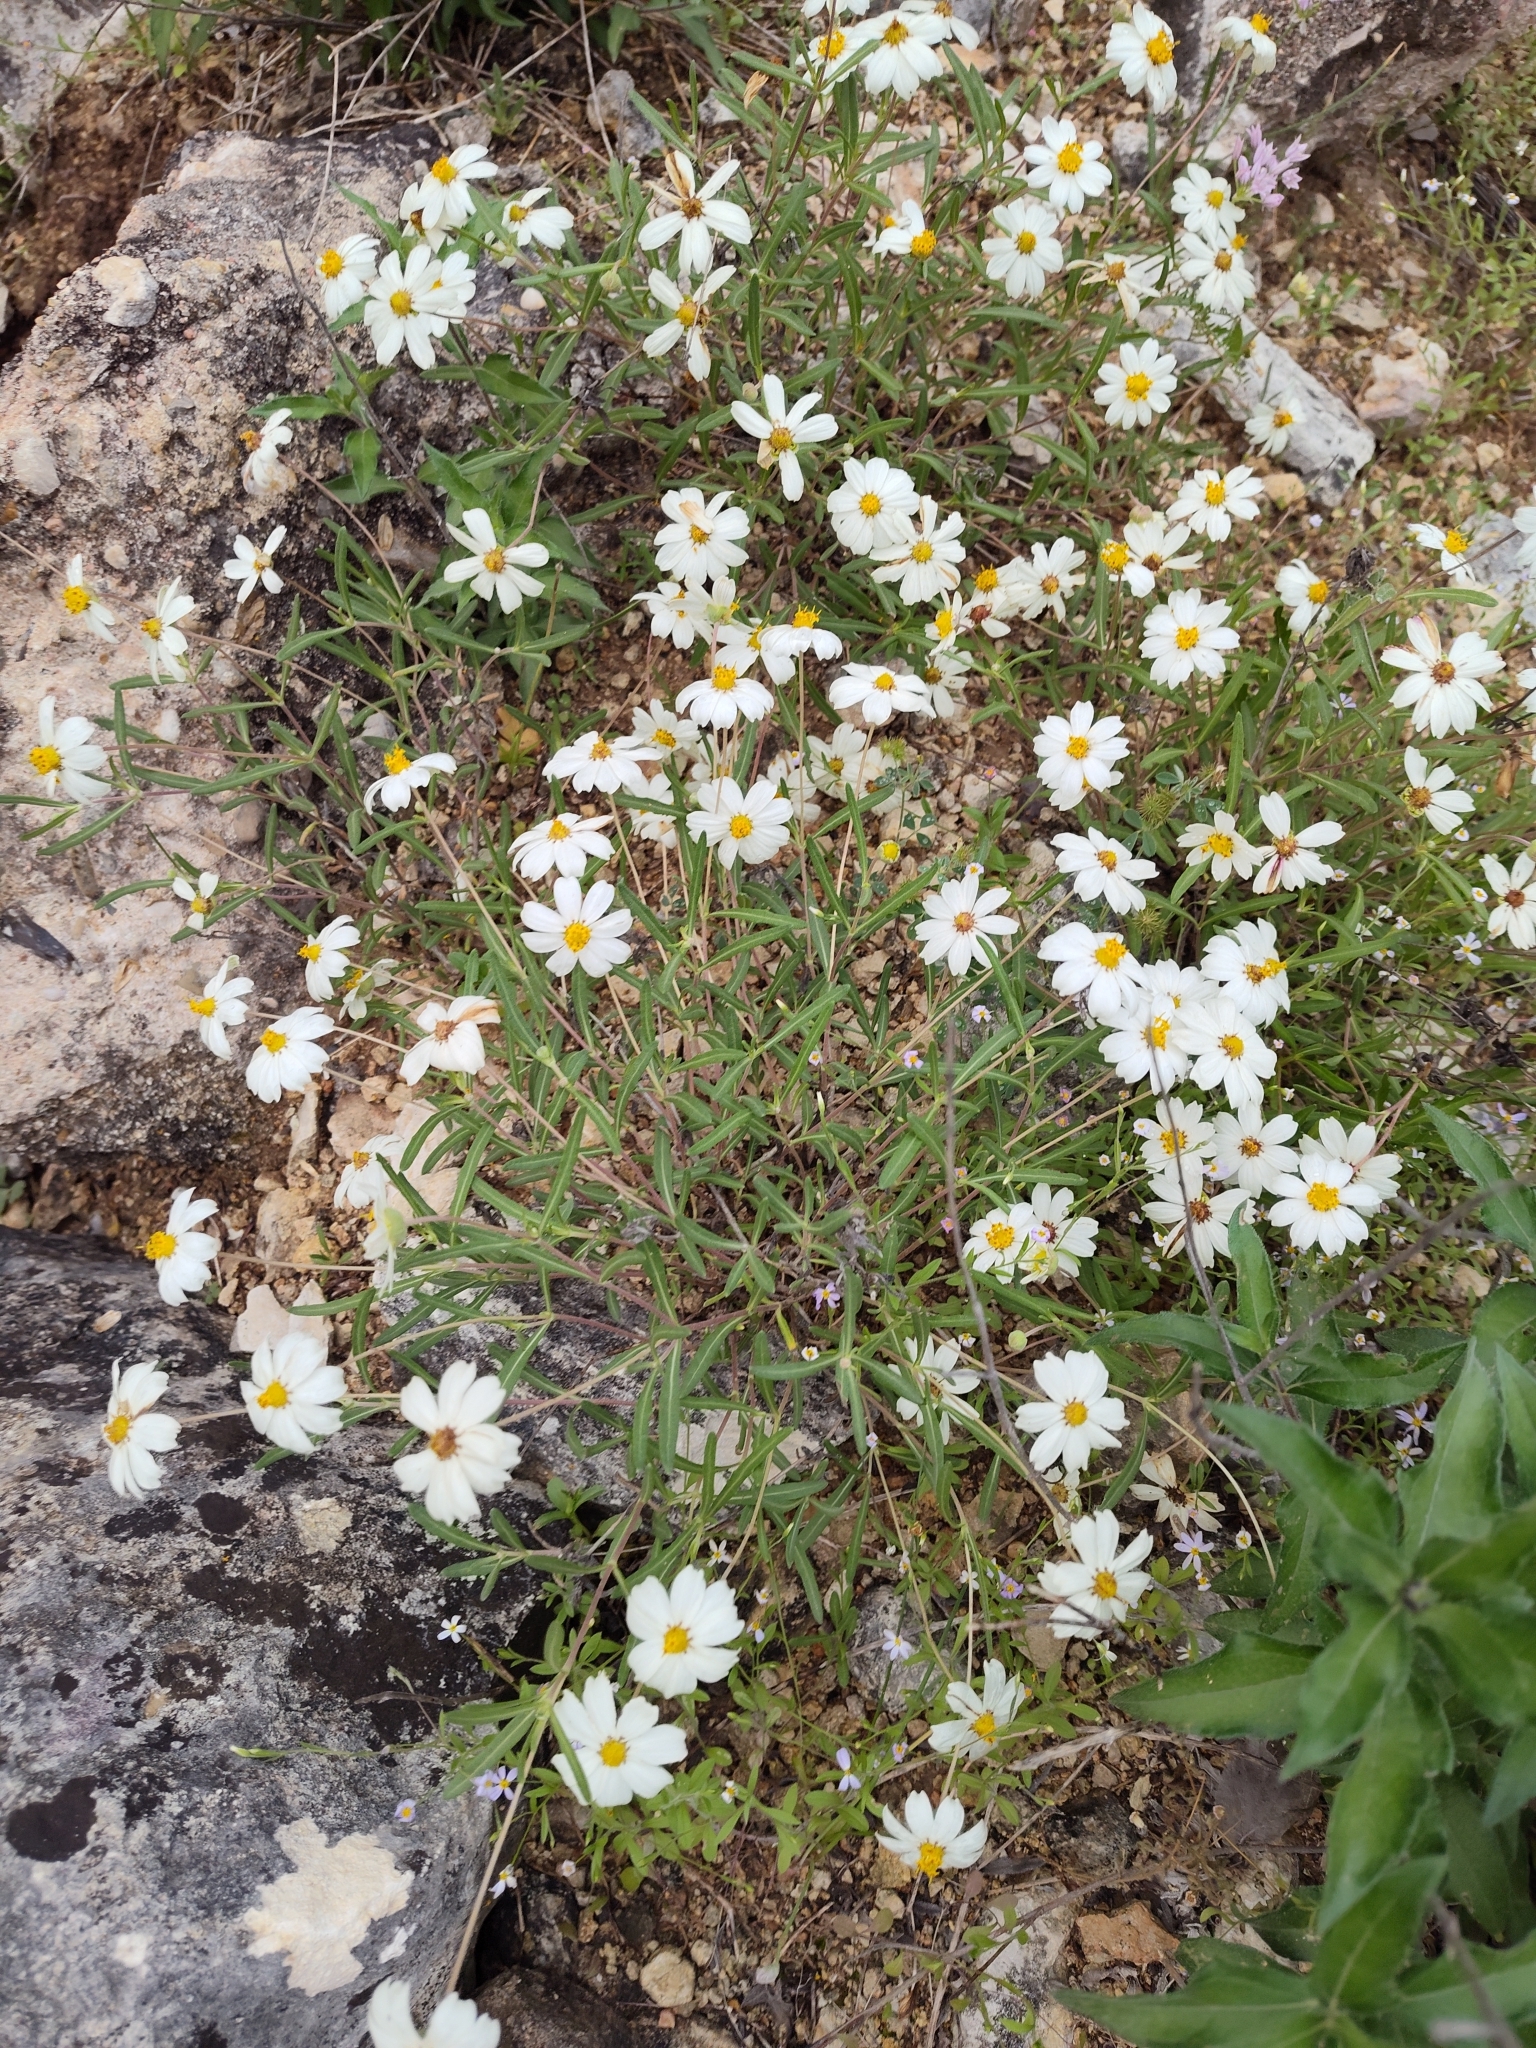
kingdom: Plantae
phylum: Tracheophyta
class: Magnoliopsida
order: Asterales
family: Asteraceae
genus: Melampodium
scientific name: Melampodium leucanthum
